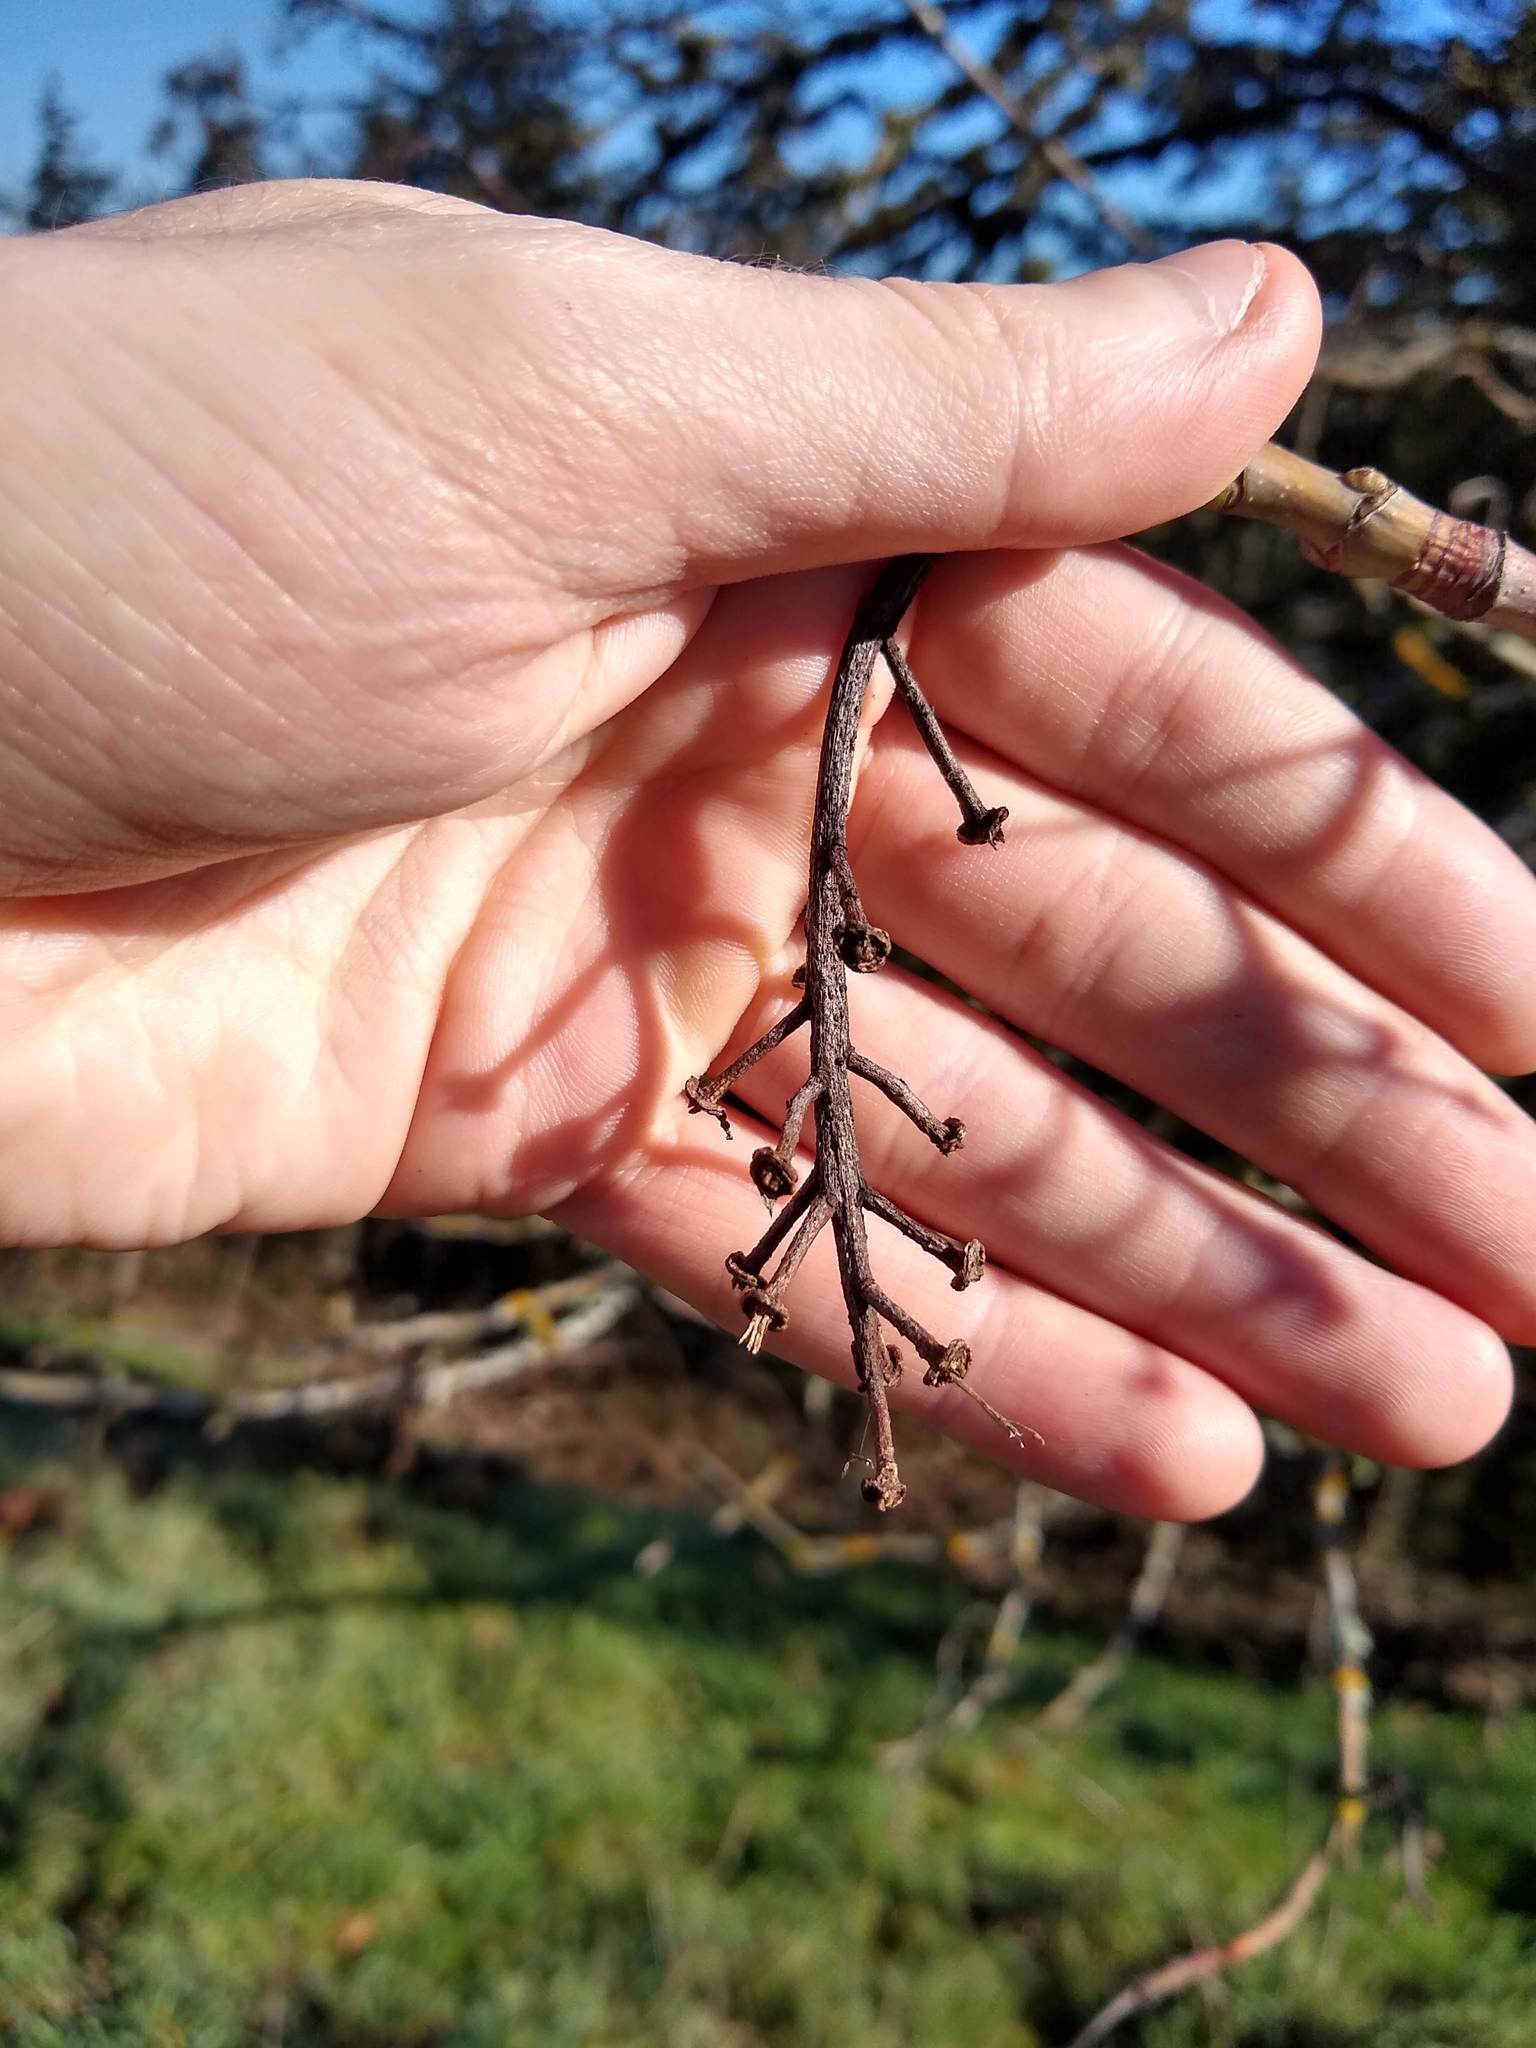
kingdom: Plantae
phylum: Tracheophyta
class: Magnoliopsida
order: Sapindales
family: Sapindaceae
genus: Acer
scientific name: Acer macrophyllum
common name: Oregon maple
